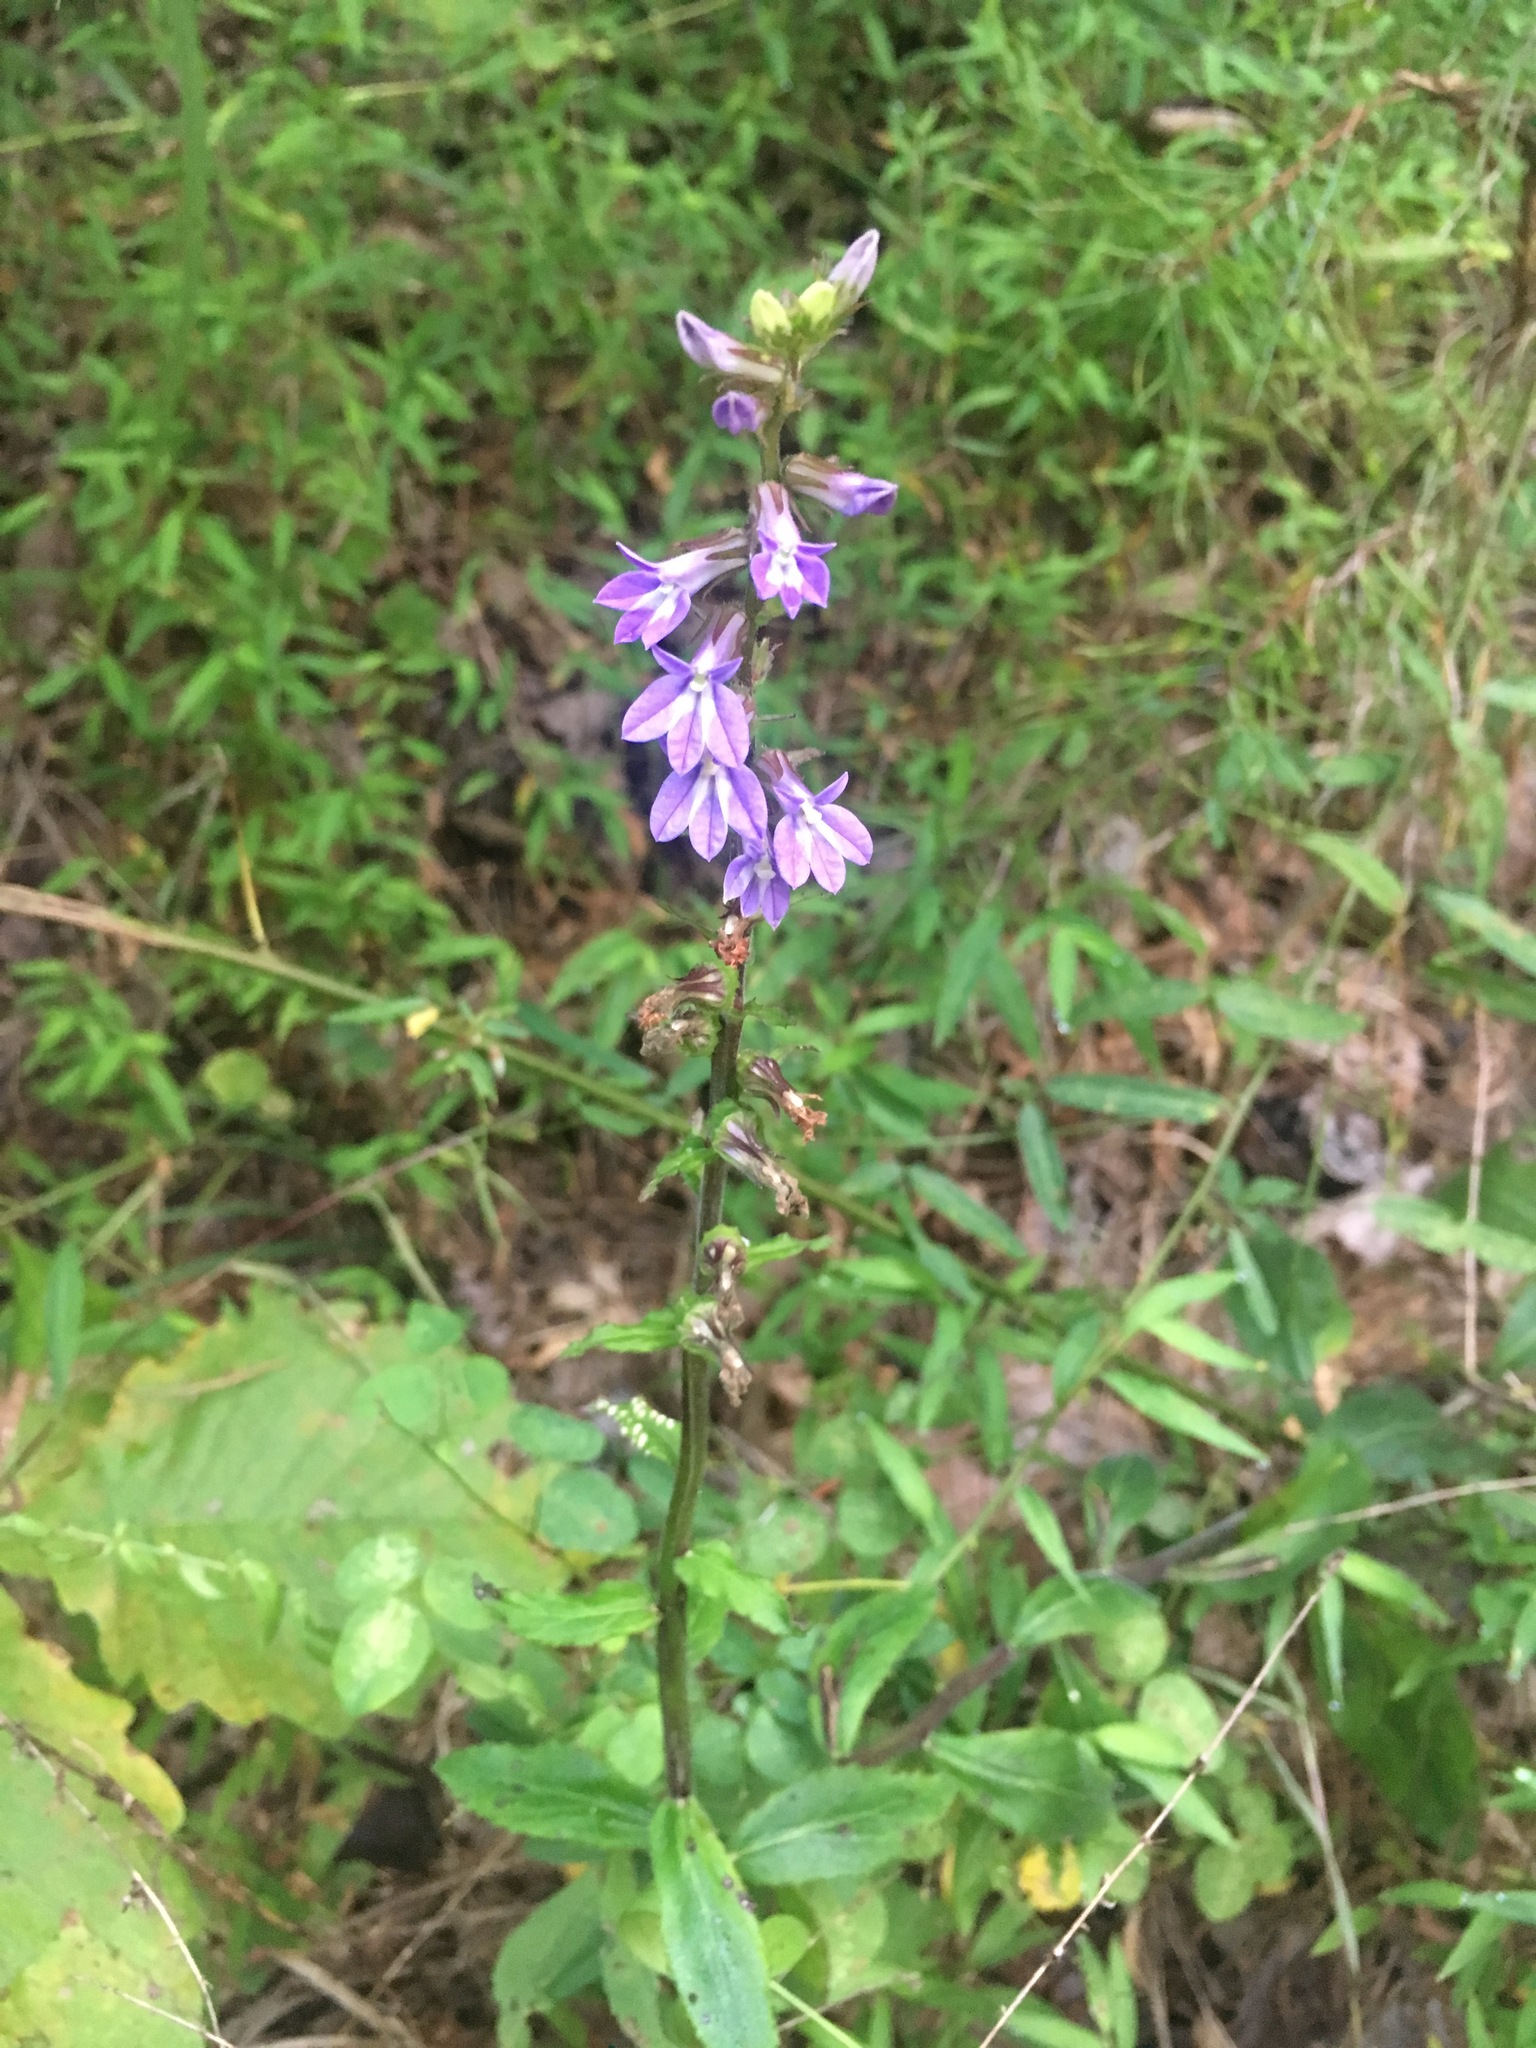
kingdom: Plantae
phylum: Tracheophyta
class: Magnoliopsida
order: Asterales
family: Campanulaceae
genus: Lobelia
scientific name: Lobelia puberula
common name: Purple dewdrop
